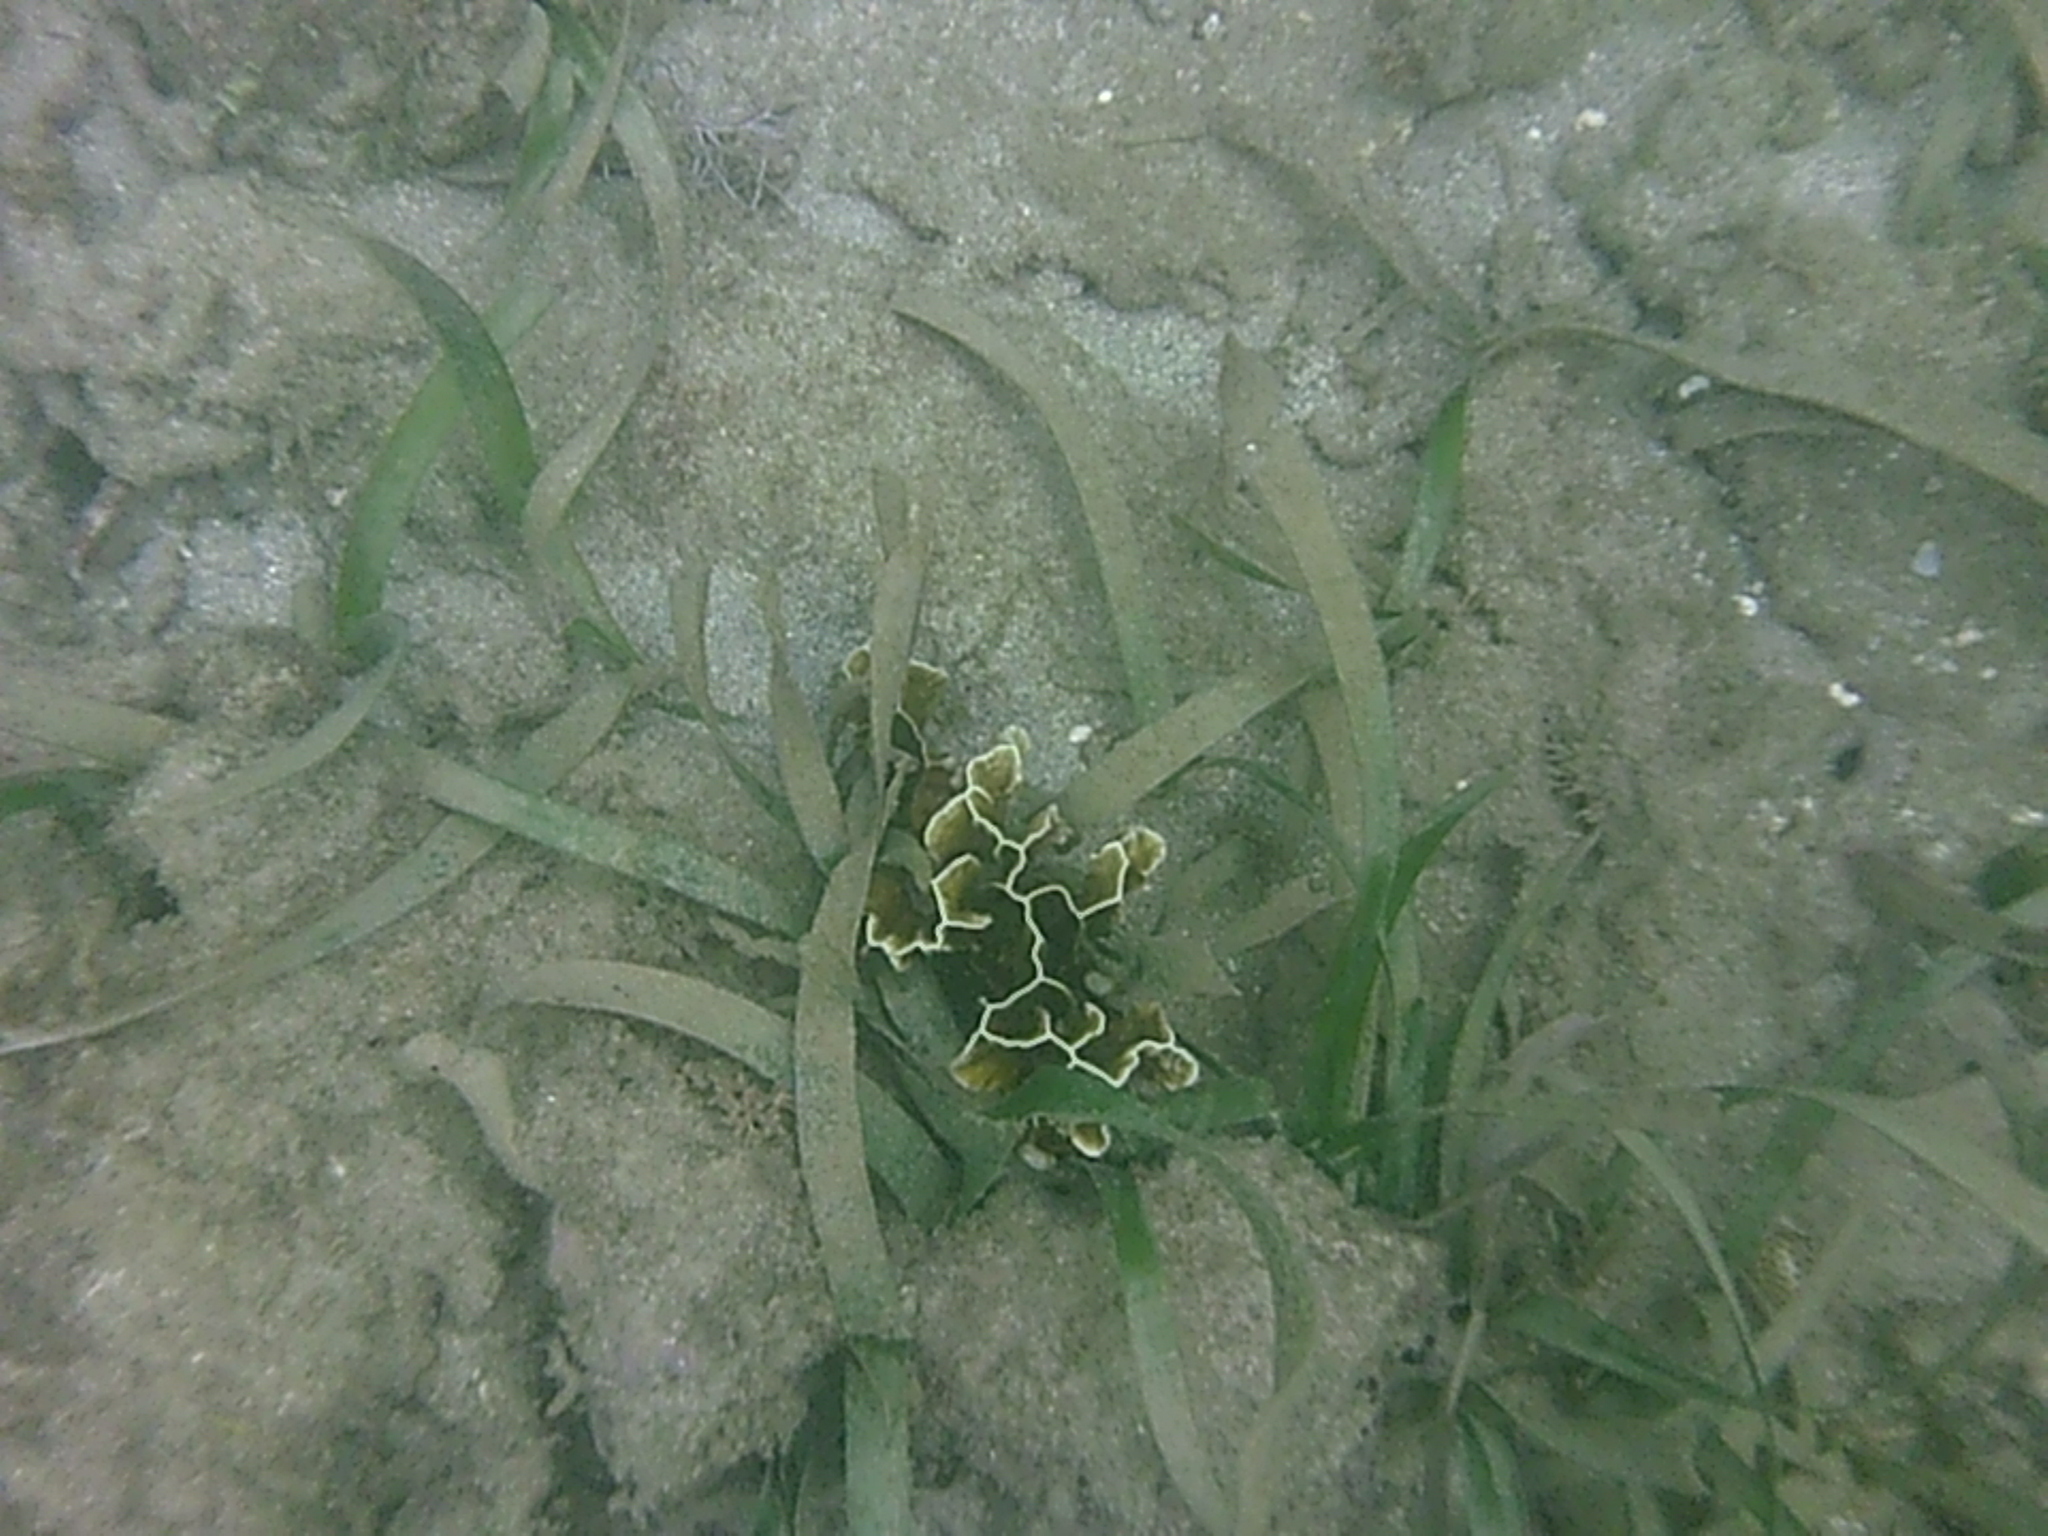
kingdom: Animalia
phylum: Cnidaria
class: Hydrozoa
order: Anthoathecata
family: Milleporidae
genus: Millepora
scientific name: Millepora squarrosa
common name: Crustal fire coral
